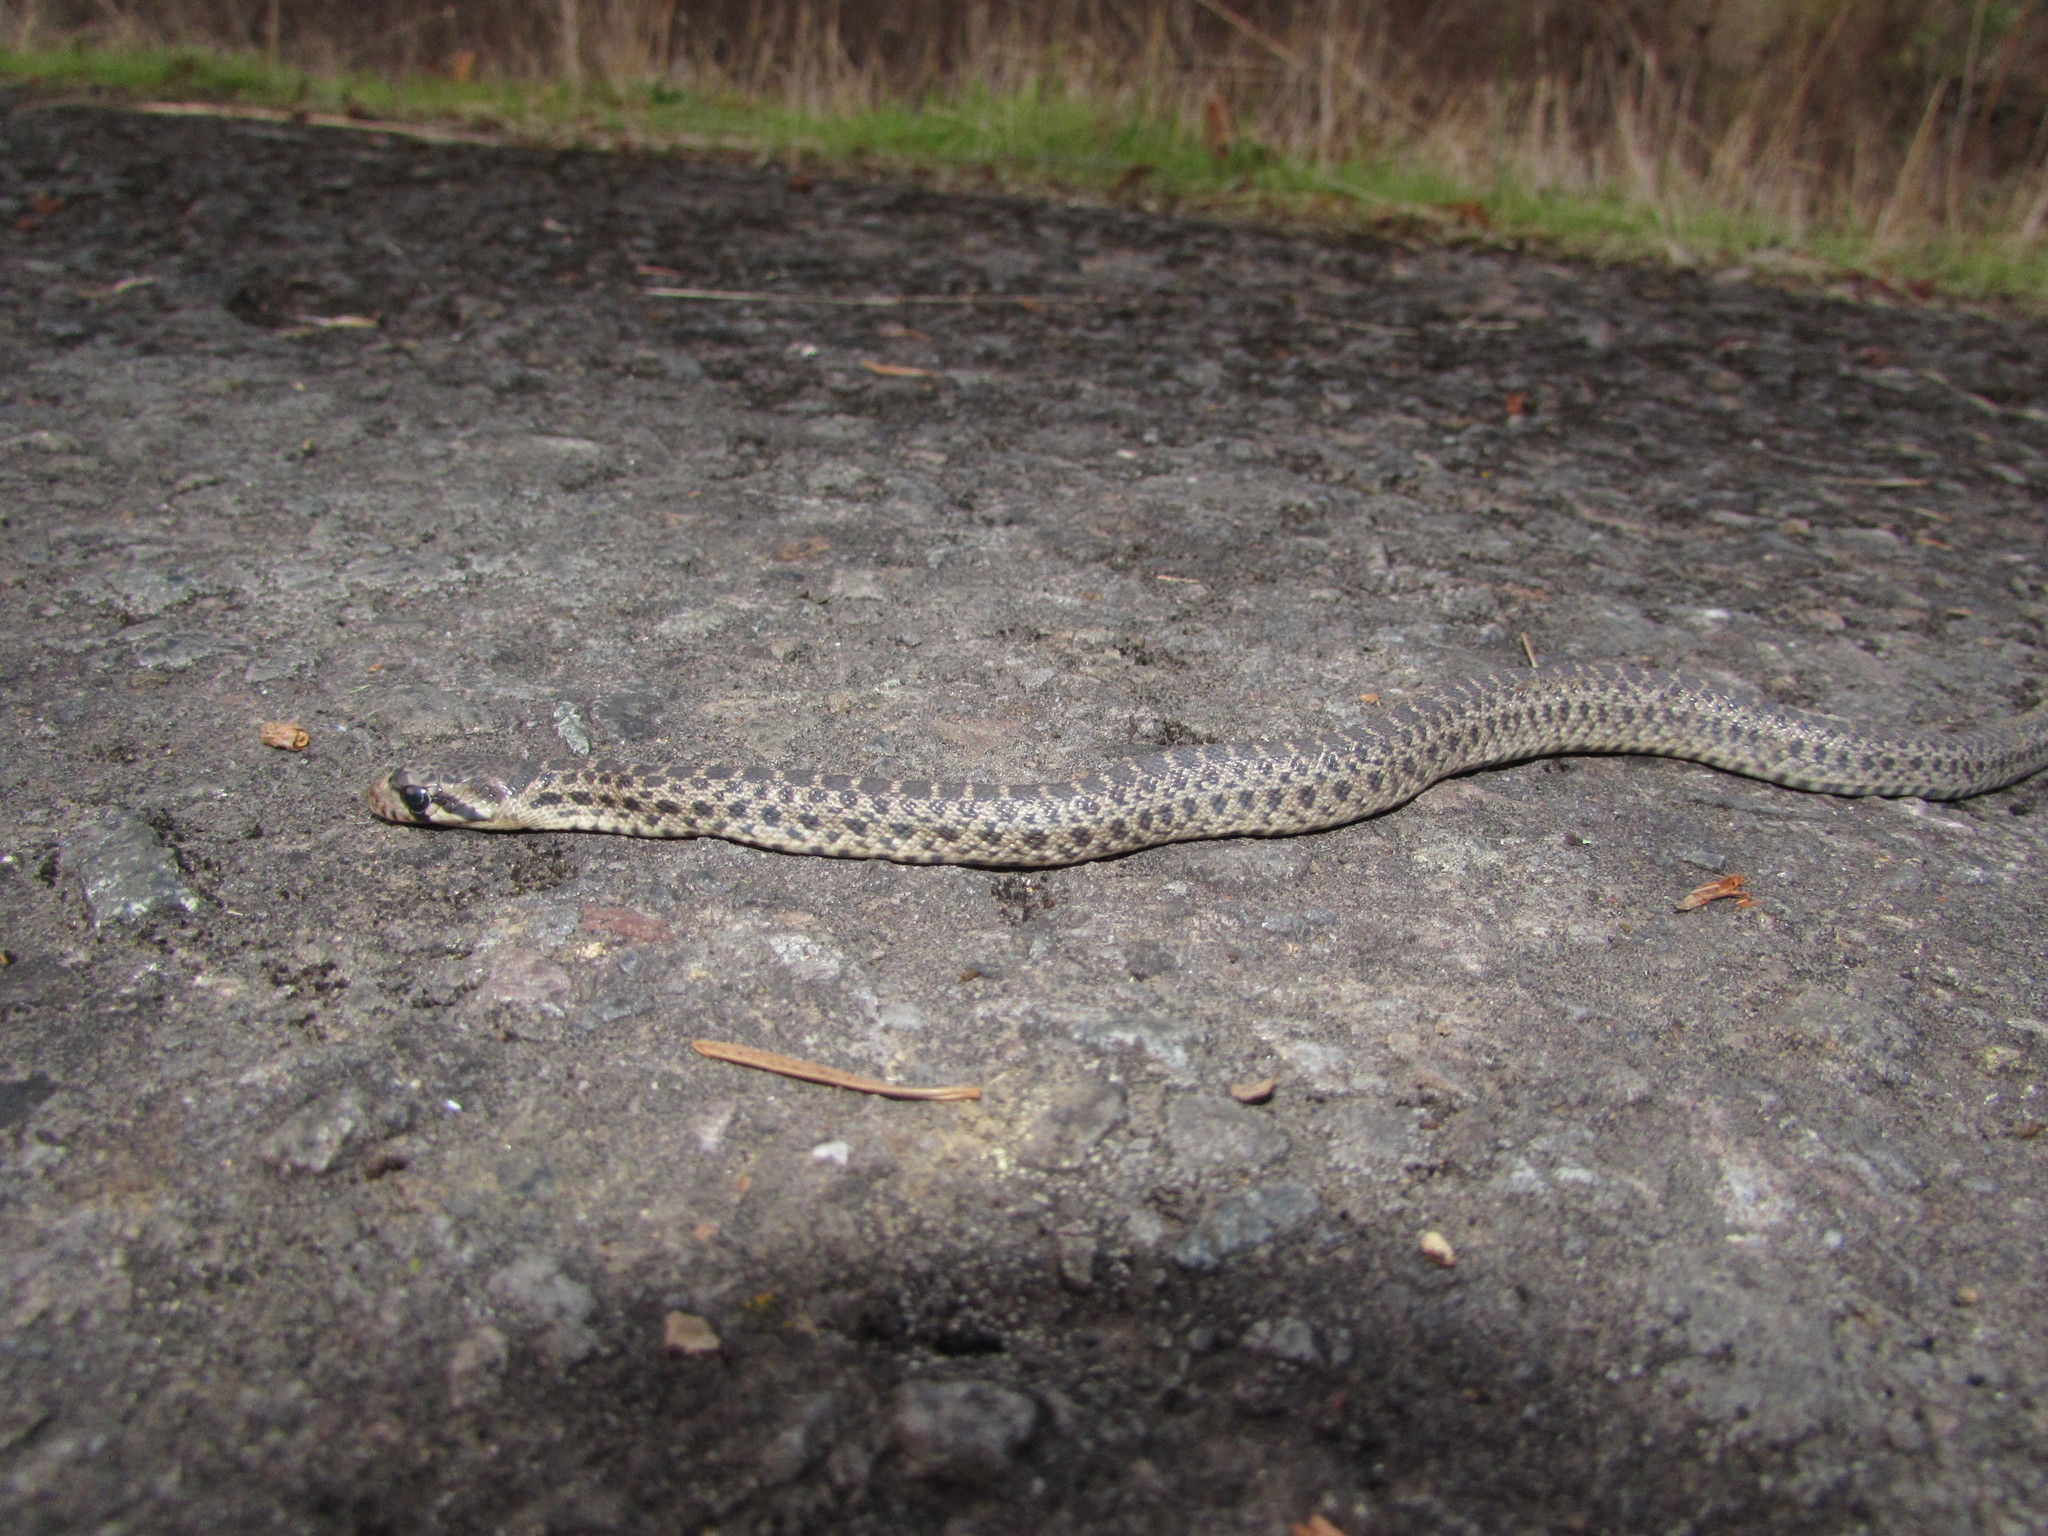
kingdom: Animalia
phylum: Chordata
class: Squamata
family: Colubridae
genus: Pituophis
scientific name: Pituophis catenifer
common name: Gopher snake
